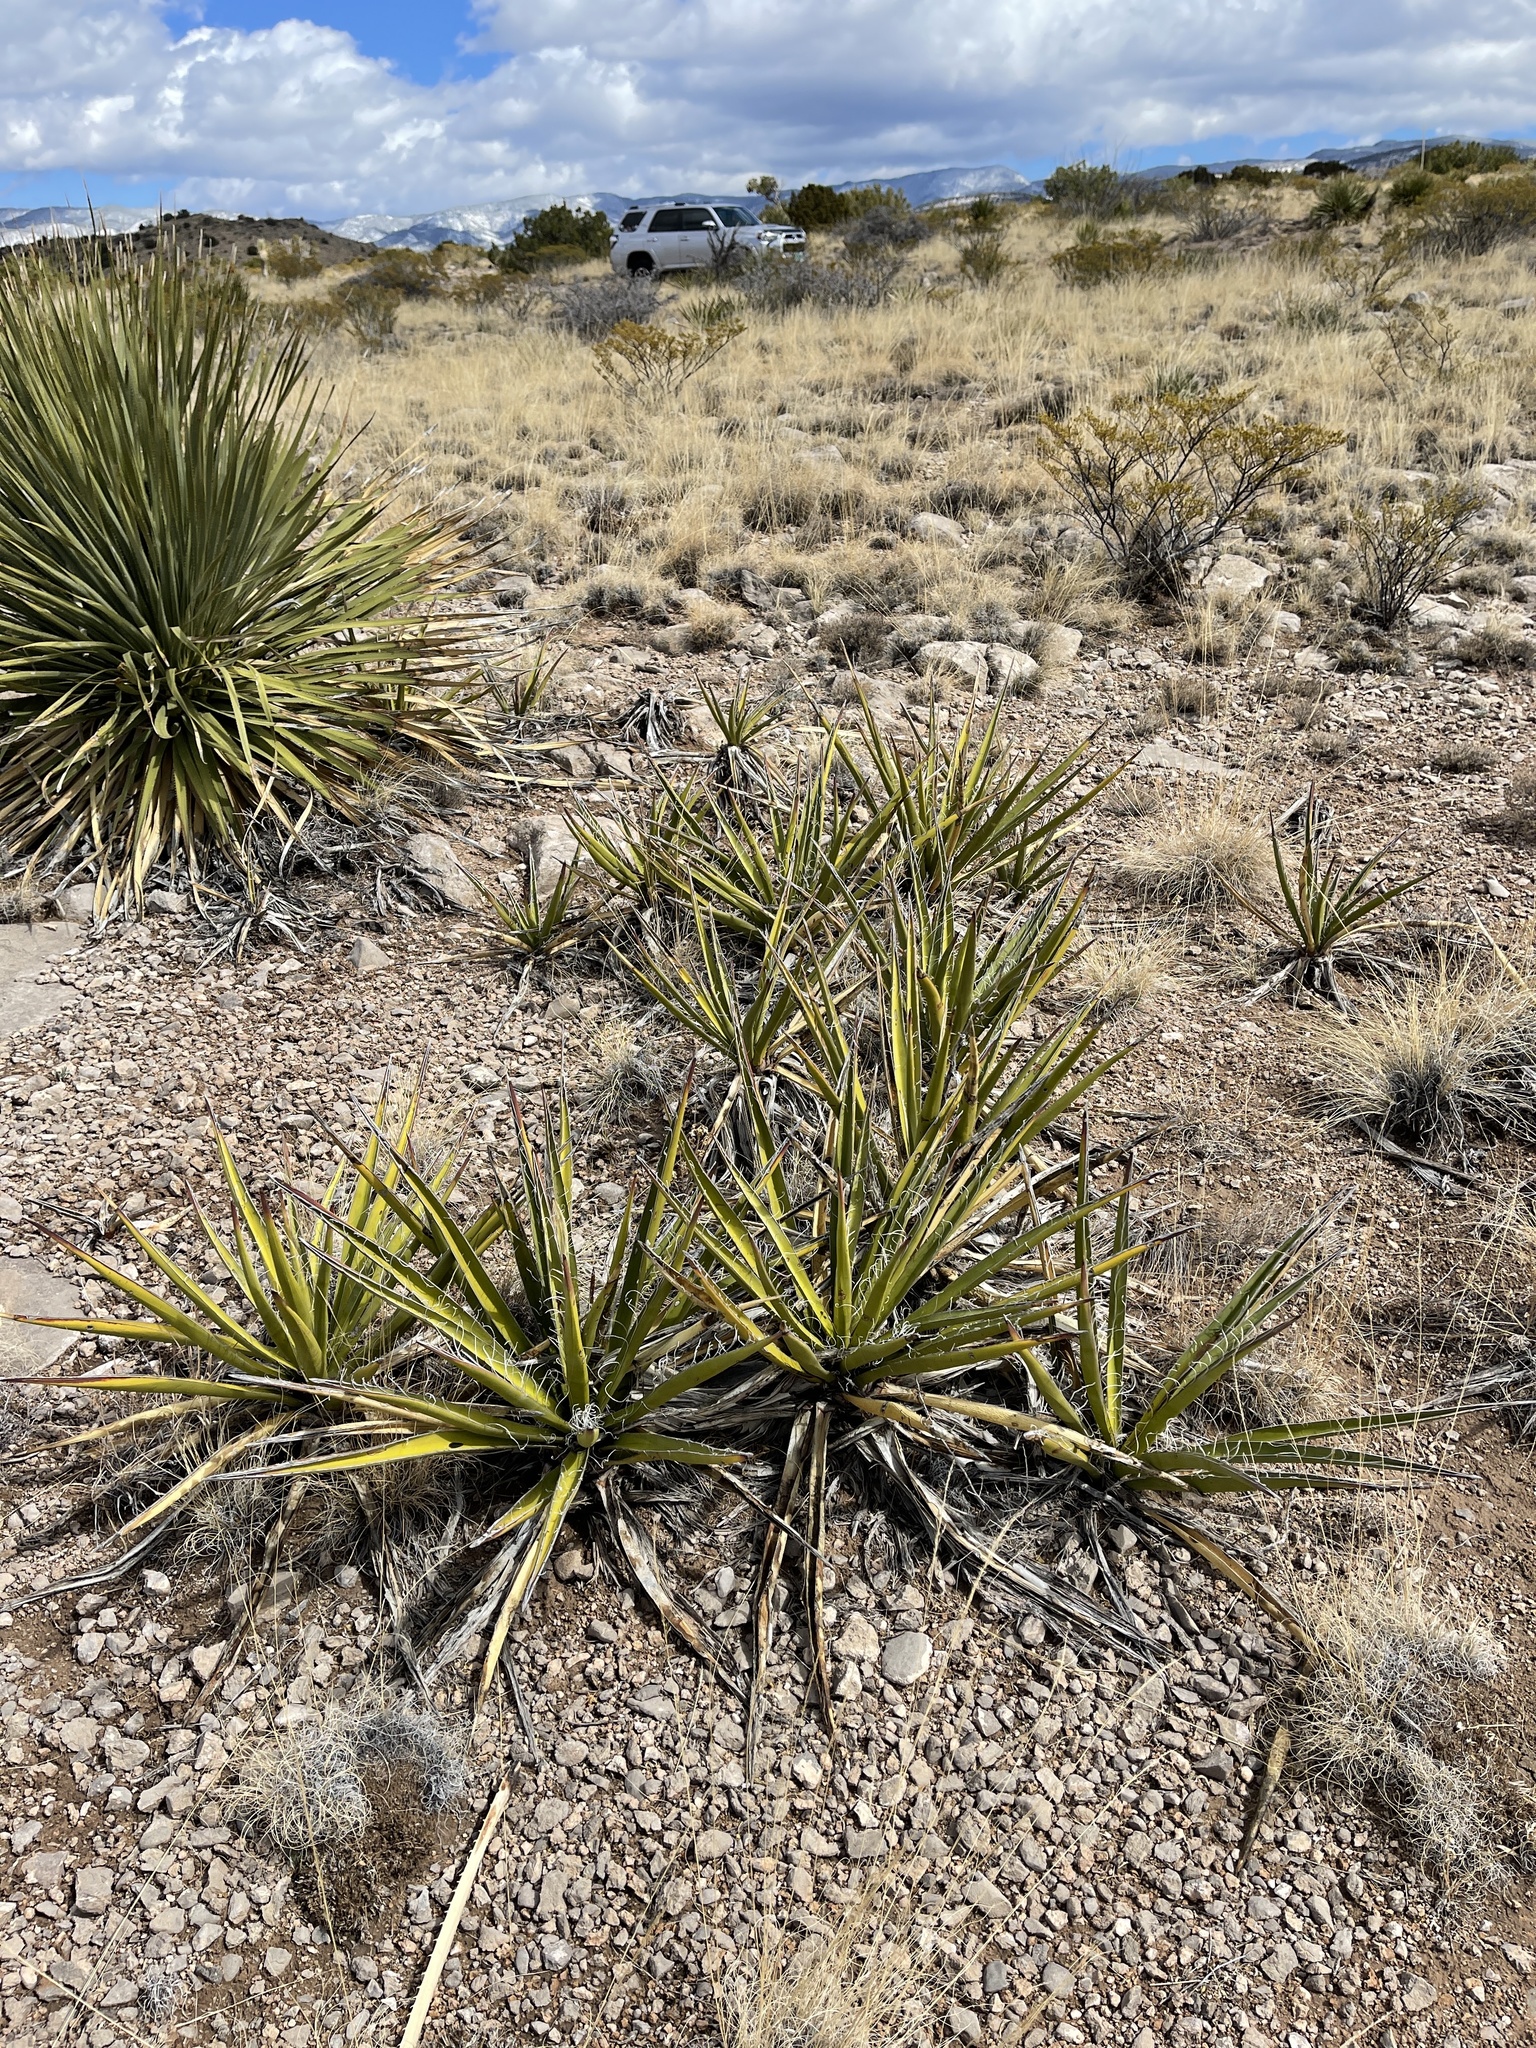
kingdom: Plantae
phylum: Tracheophyta
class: Liliopsida
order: Asparagales
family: Asparagaceae
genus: Yucca
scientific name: Yucca baccata
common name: Banana yucca
